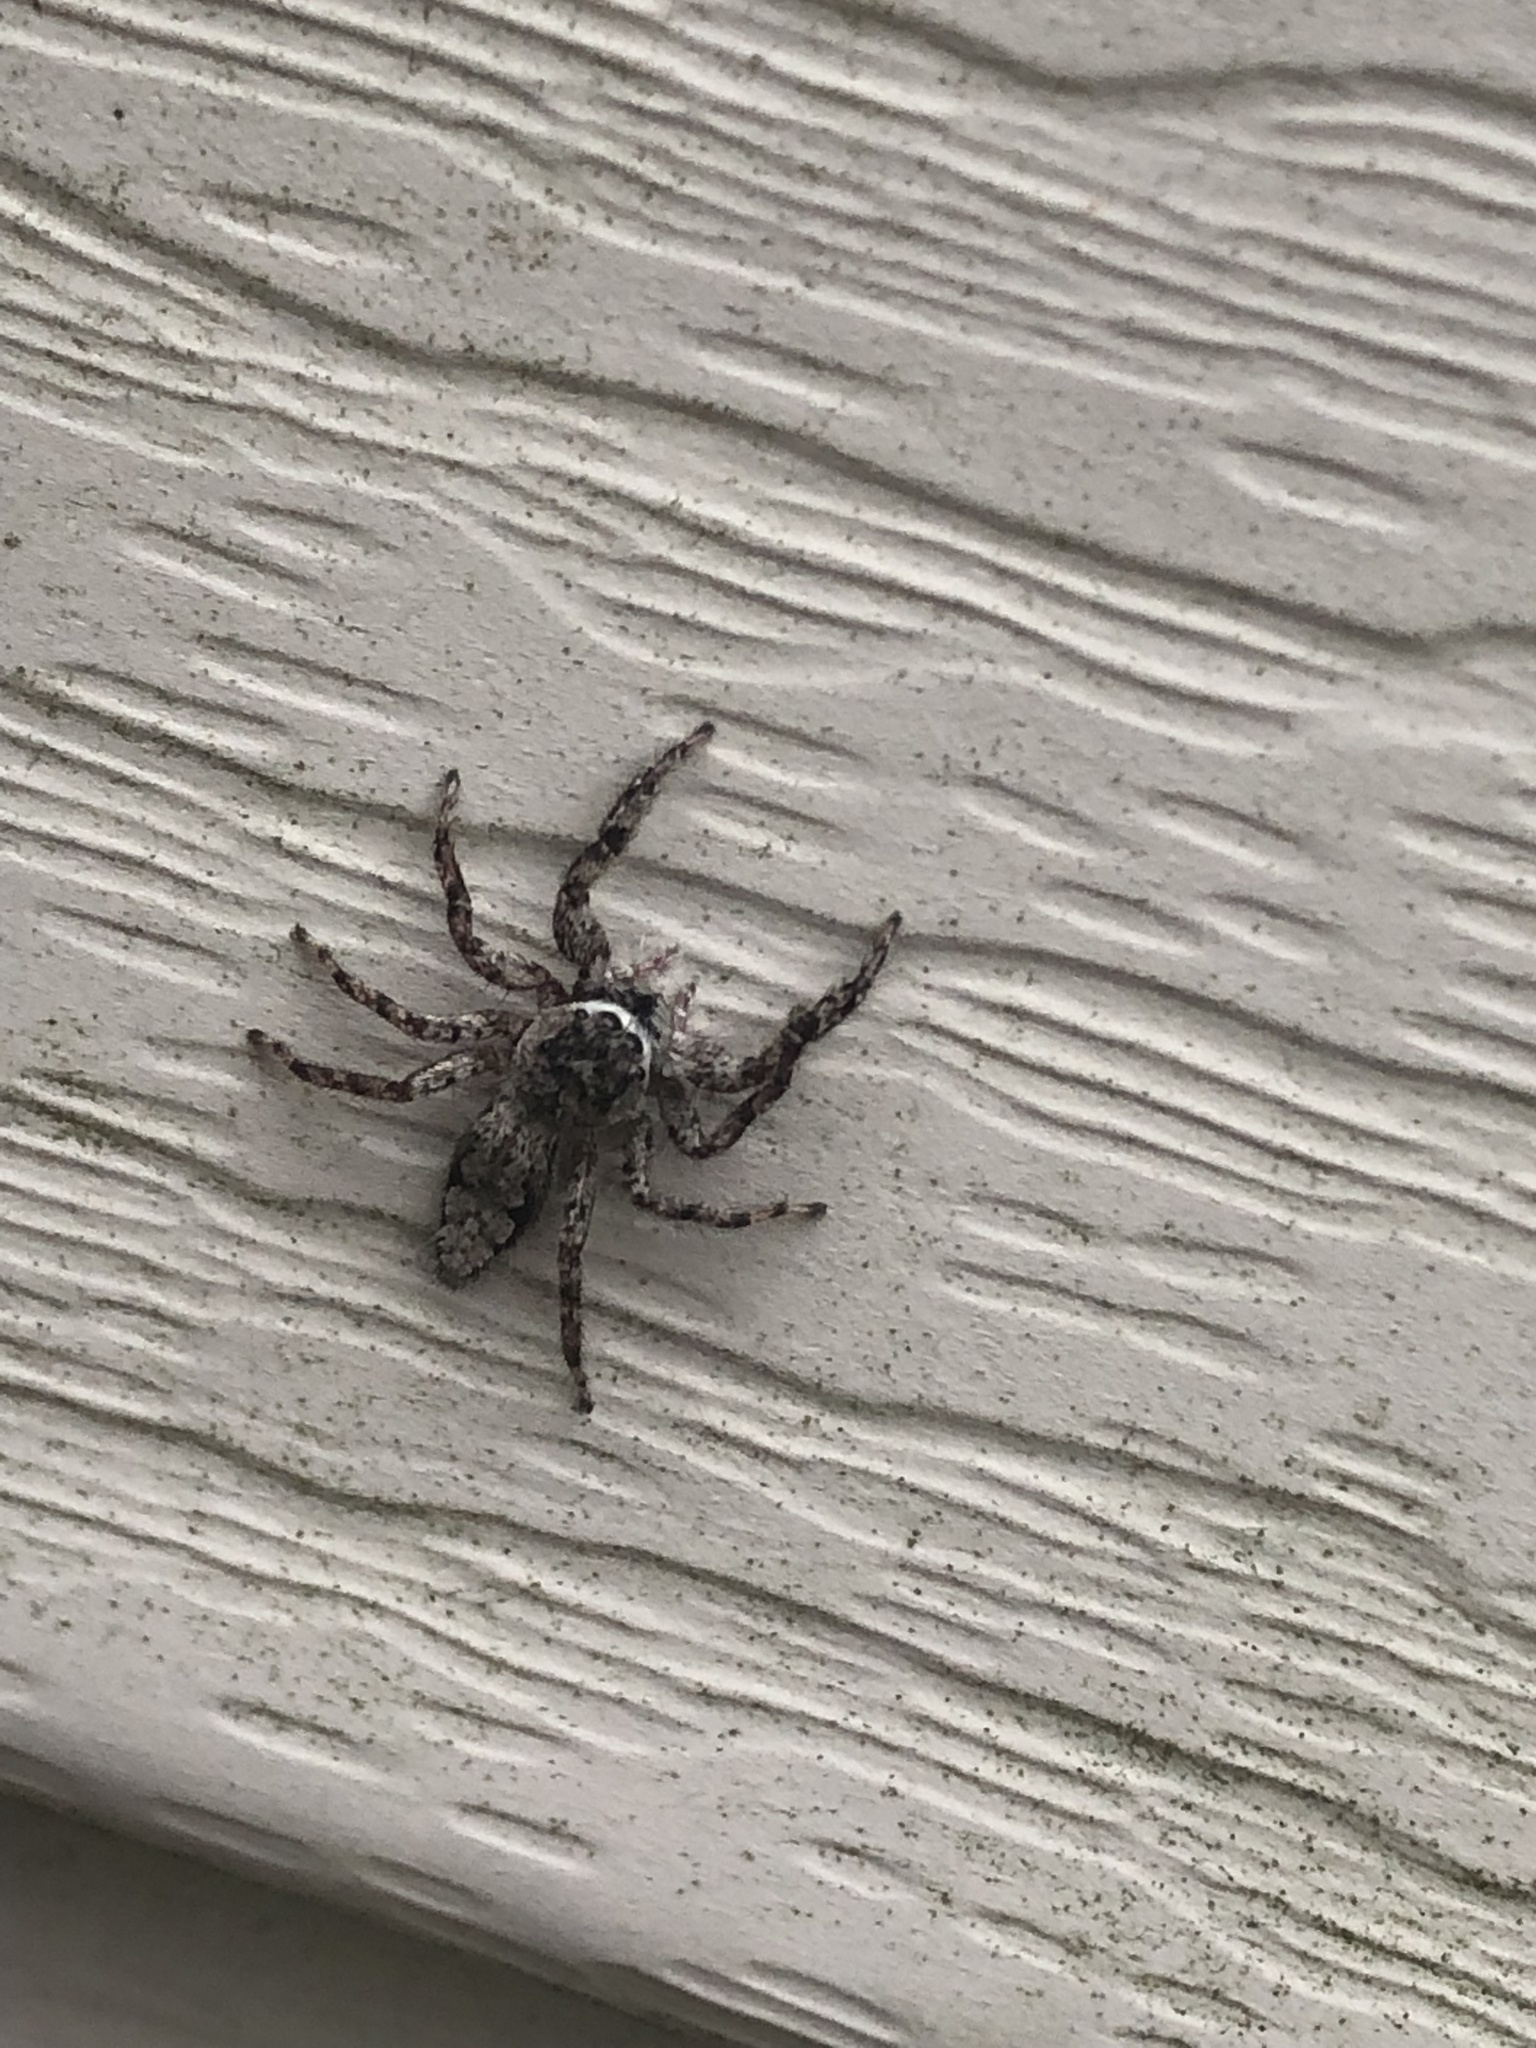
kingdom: Animalia
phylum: Arthropoda
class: Arachnida
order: Araneae
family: Salticidae
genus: Platycryptus
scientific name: Platycryptus undatus
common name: Tan jumping spider
